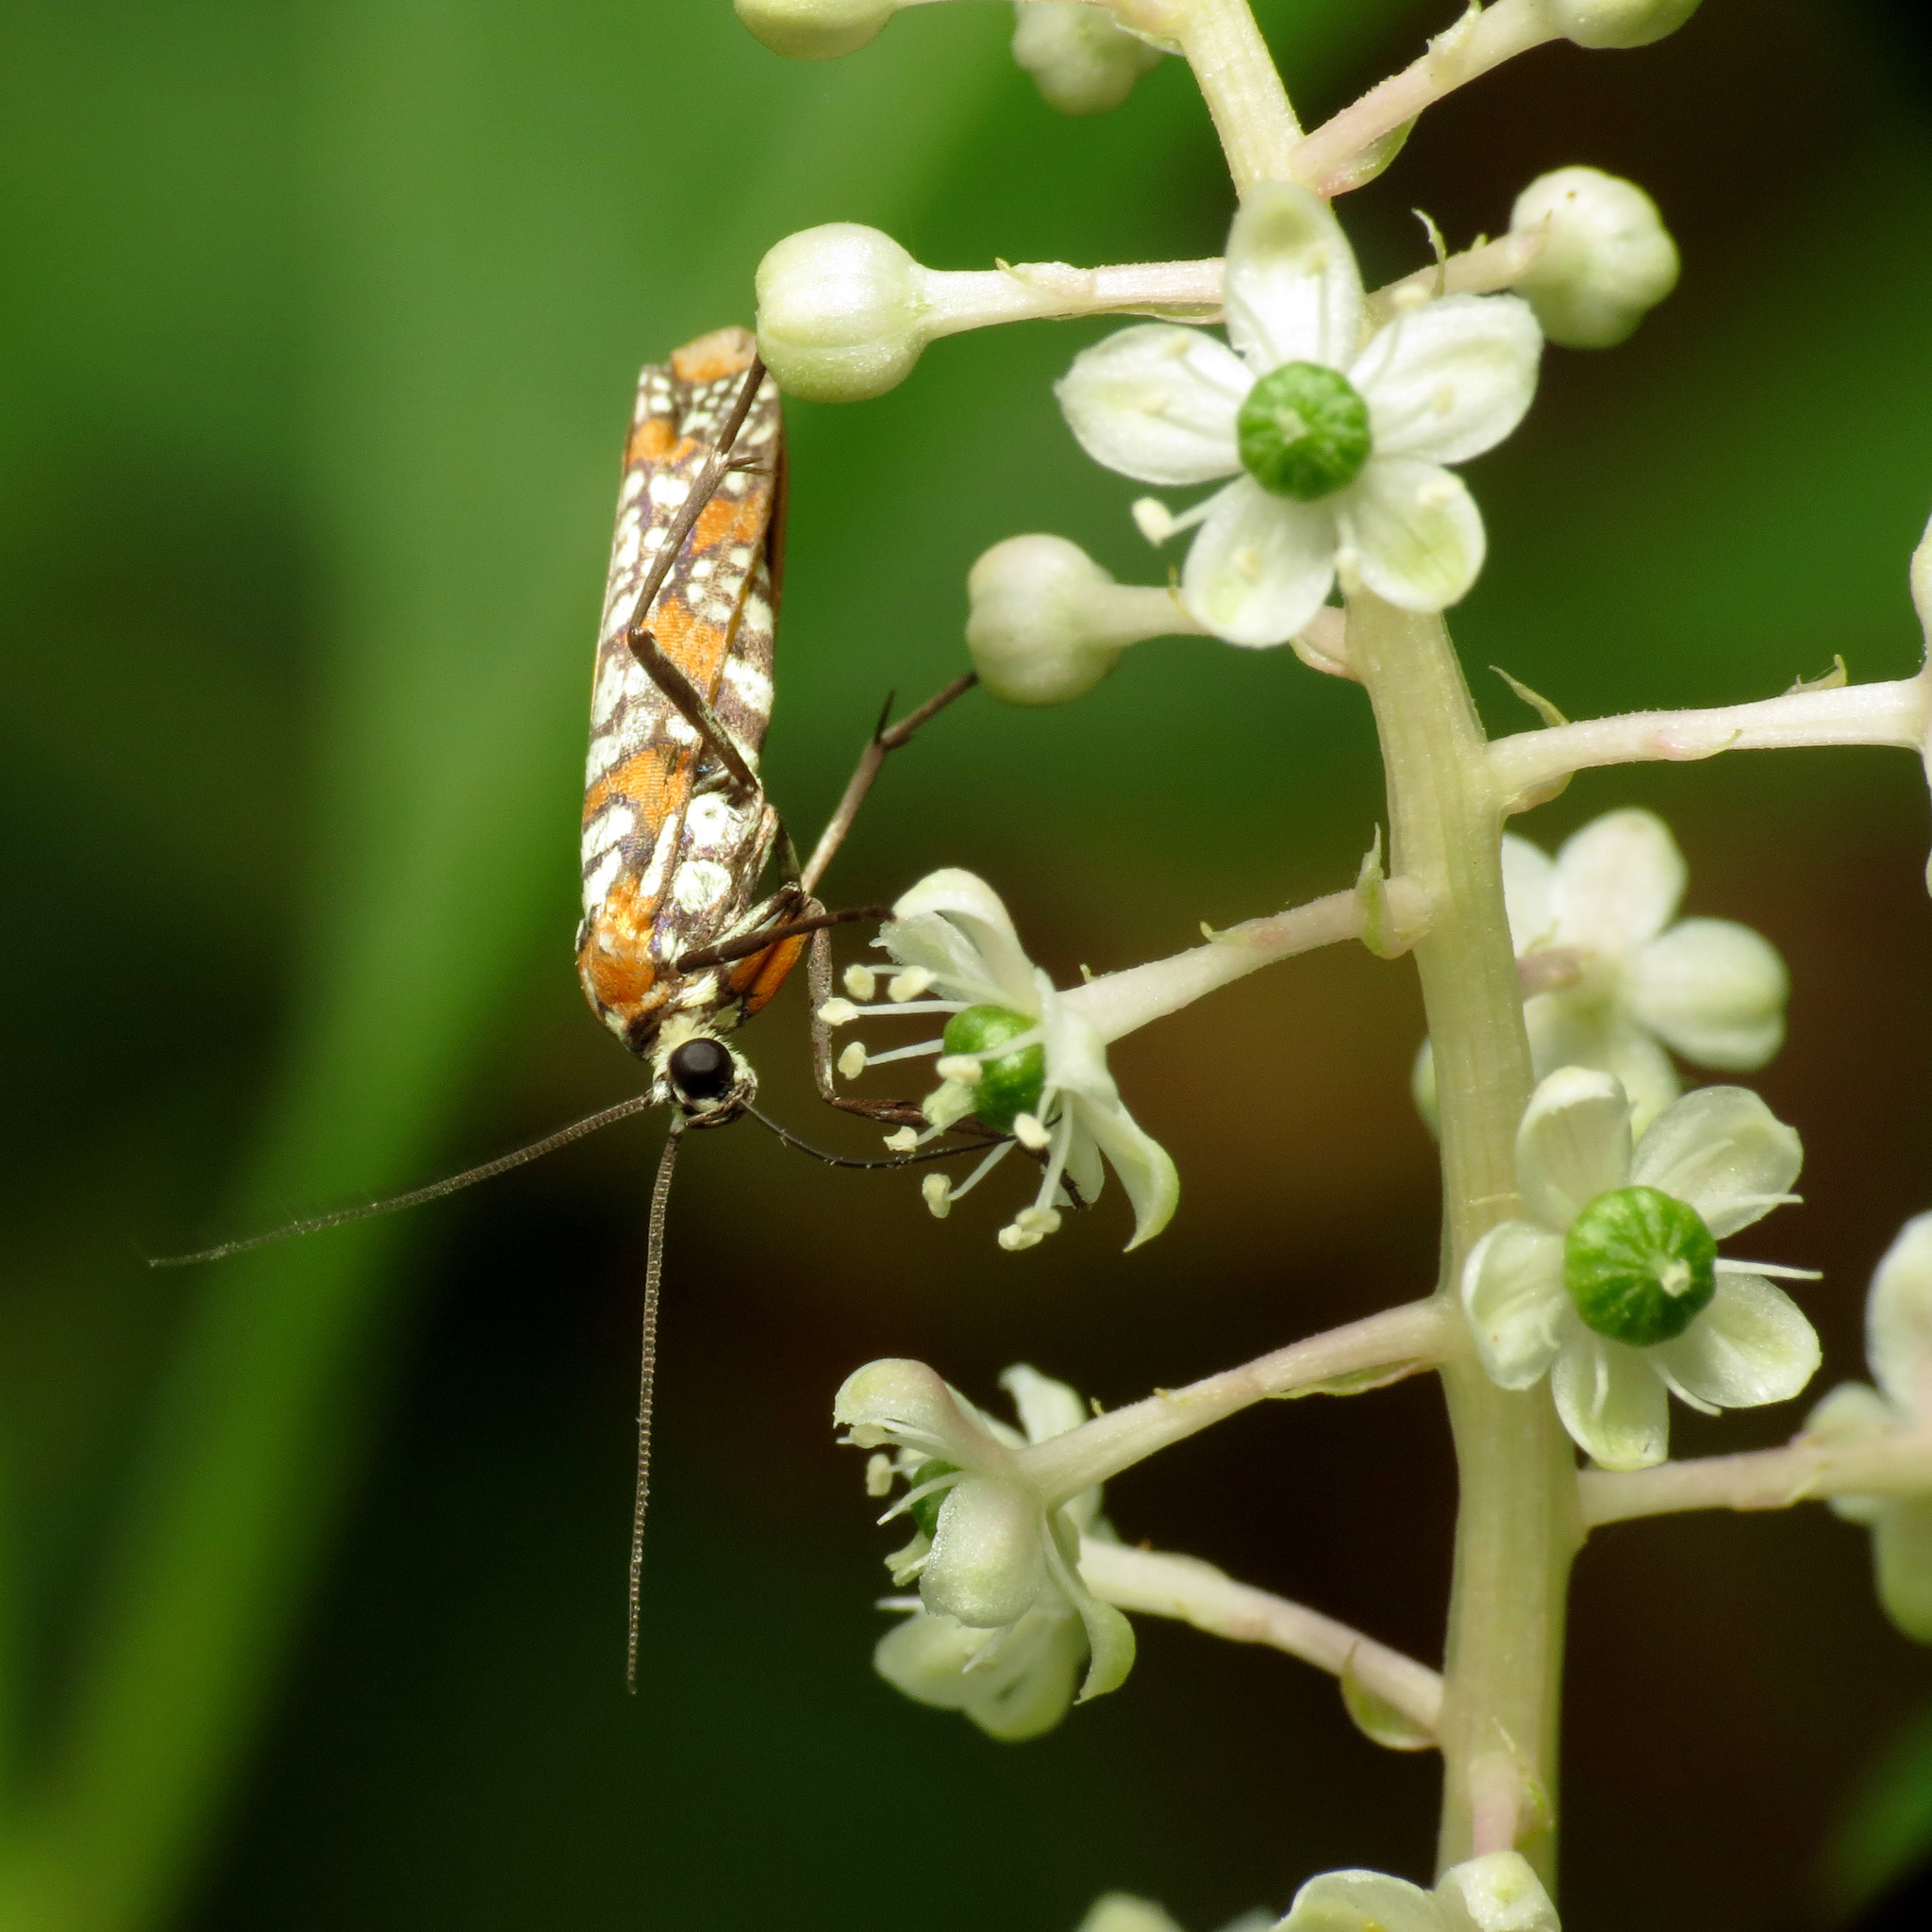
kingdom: Animalia
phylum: Arthropoda
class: Insecta
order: Lepidoptera
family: Attevidae
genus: Atteva
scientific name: Atteva punctella
